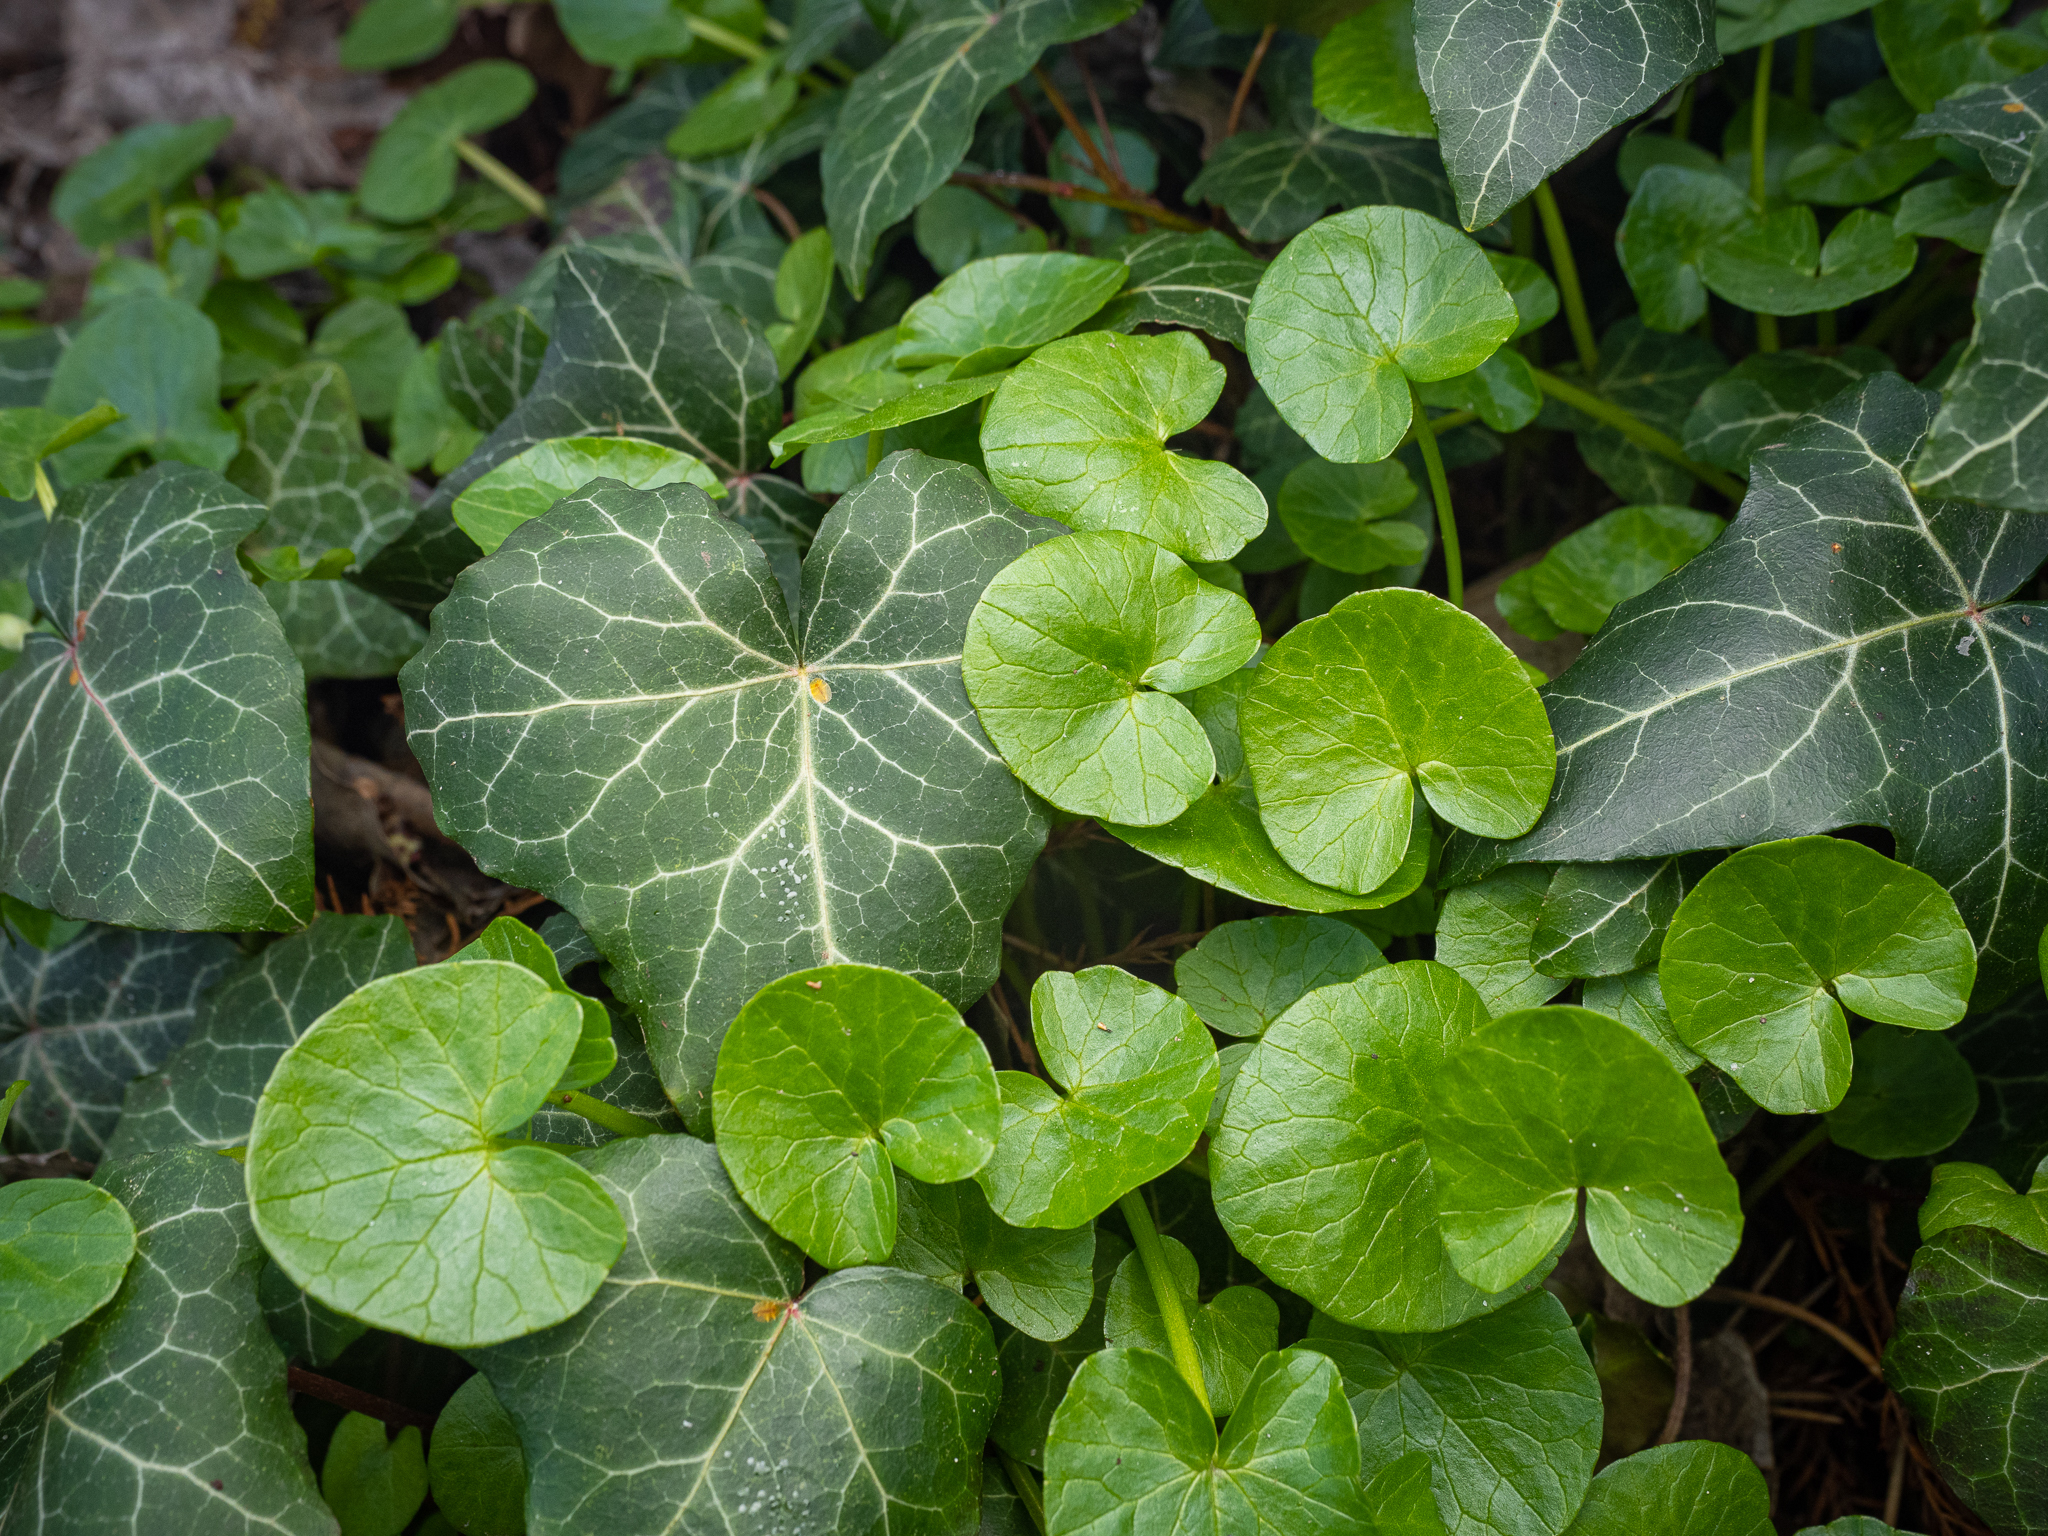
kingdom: Plantae
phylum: Tracheophyta
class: Magnoliopsida
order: Ranunculales
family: Ranunculaceae
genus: Ficaria
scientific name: Ficaria verna
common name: Lesser celandine
